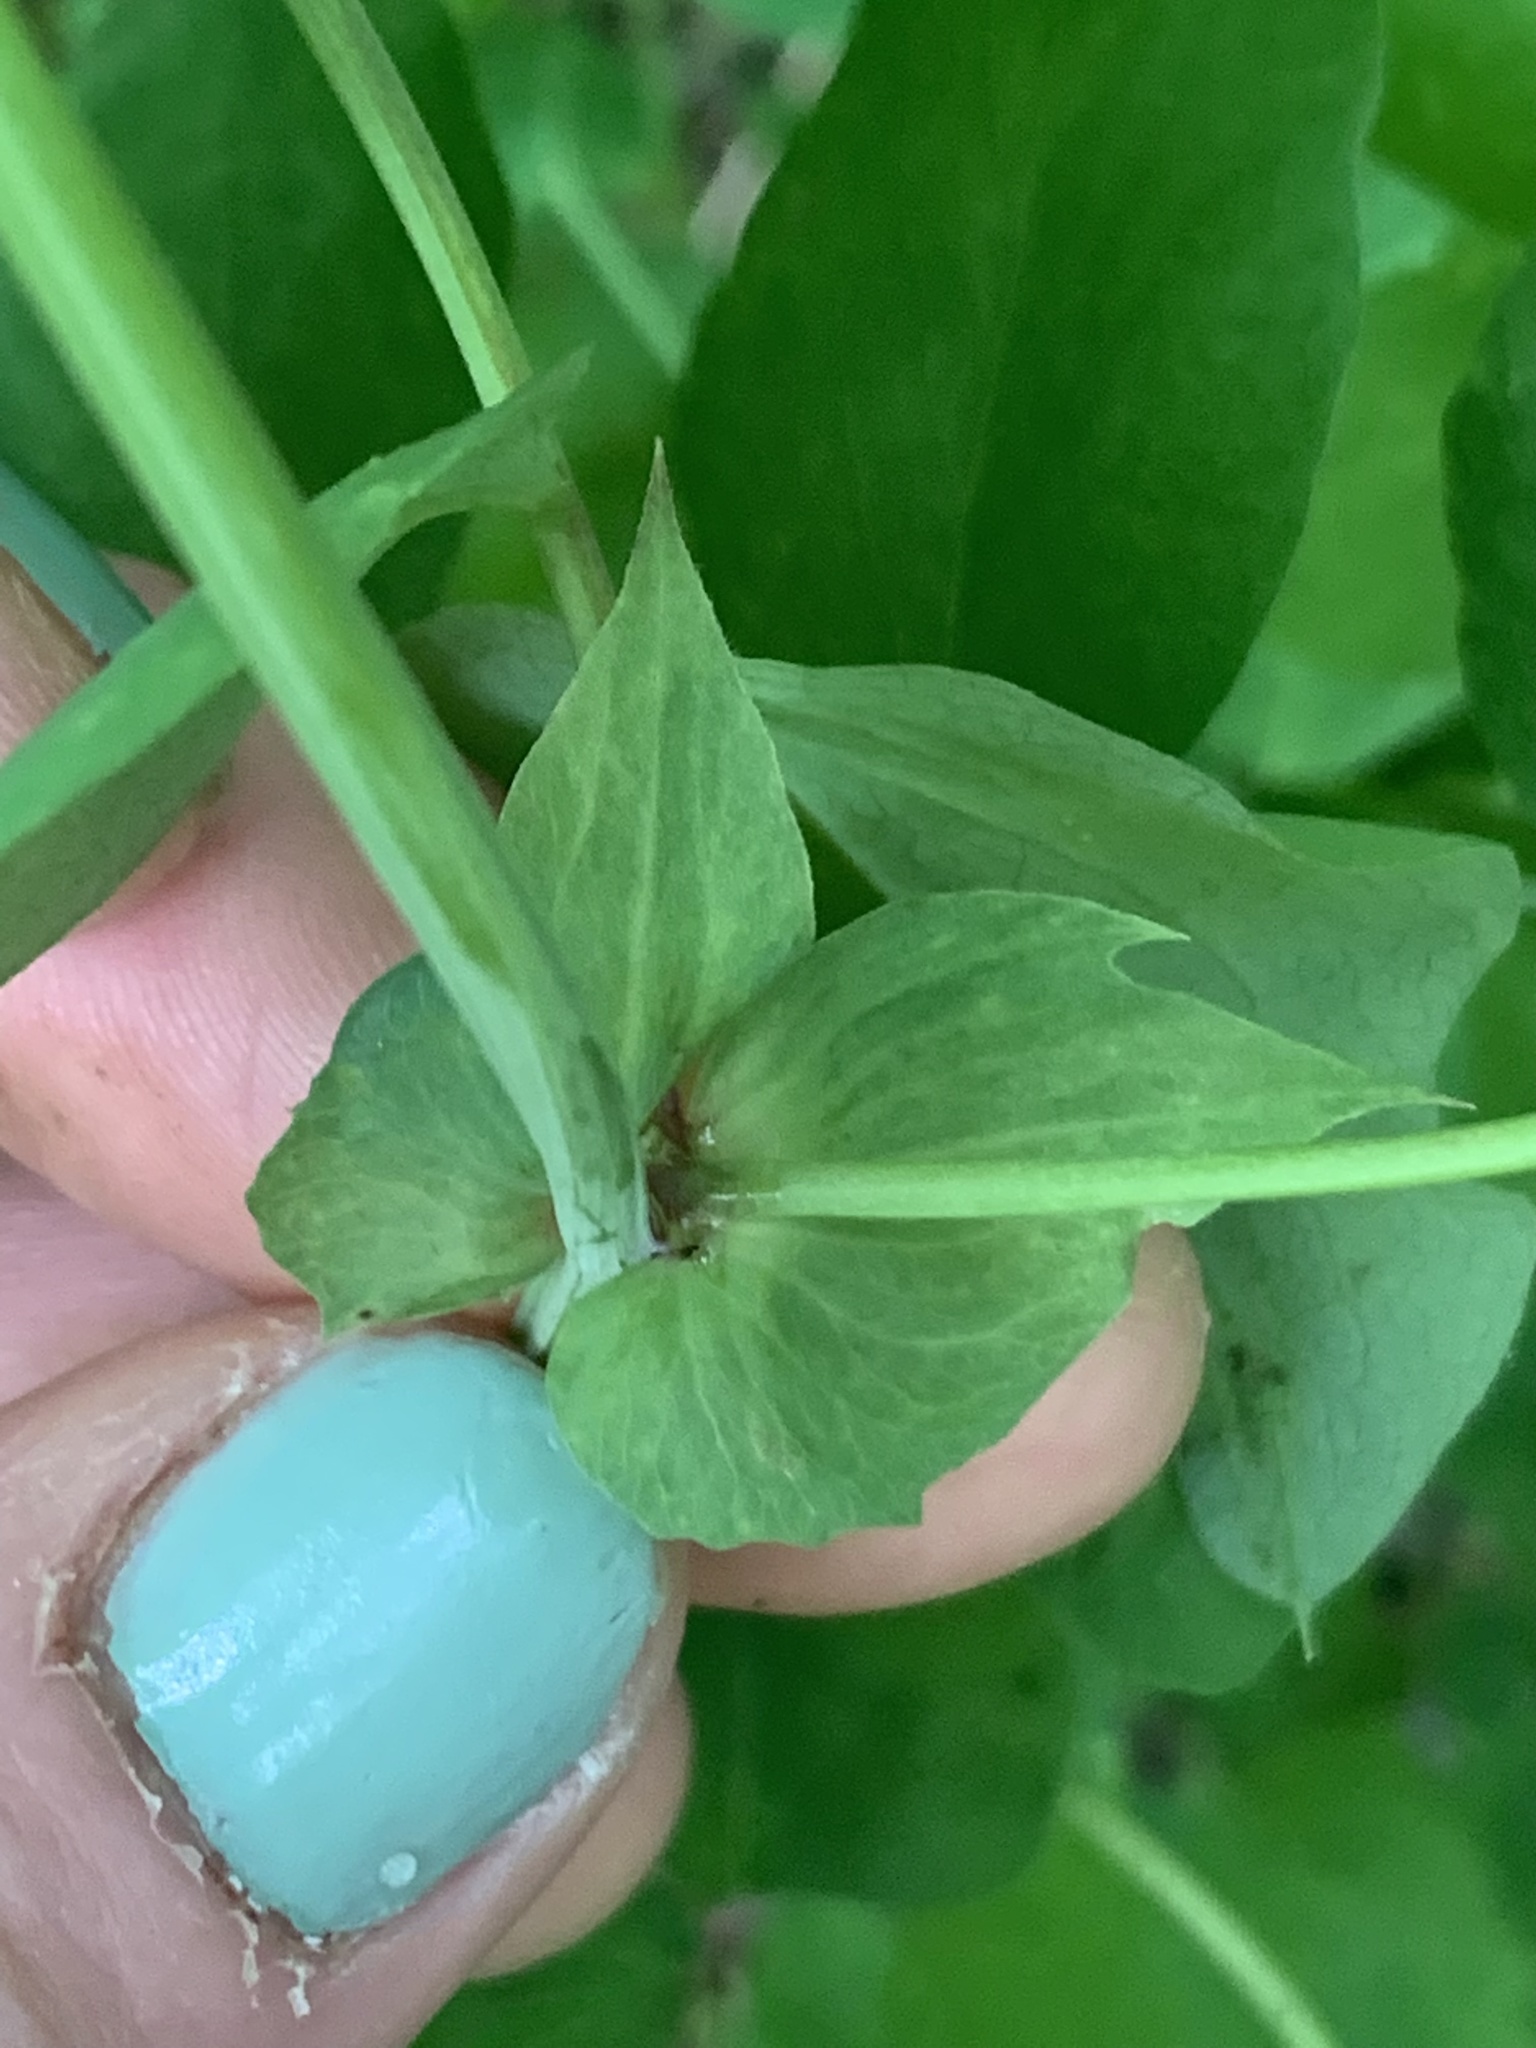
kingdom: Plantae
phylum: Tracheophyta
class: Magnoliopsida
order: Fabales
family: Fabaceae
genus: Lathyrus
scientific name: Lathyrus vestitus
